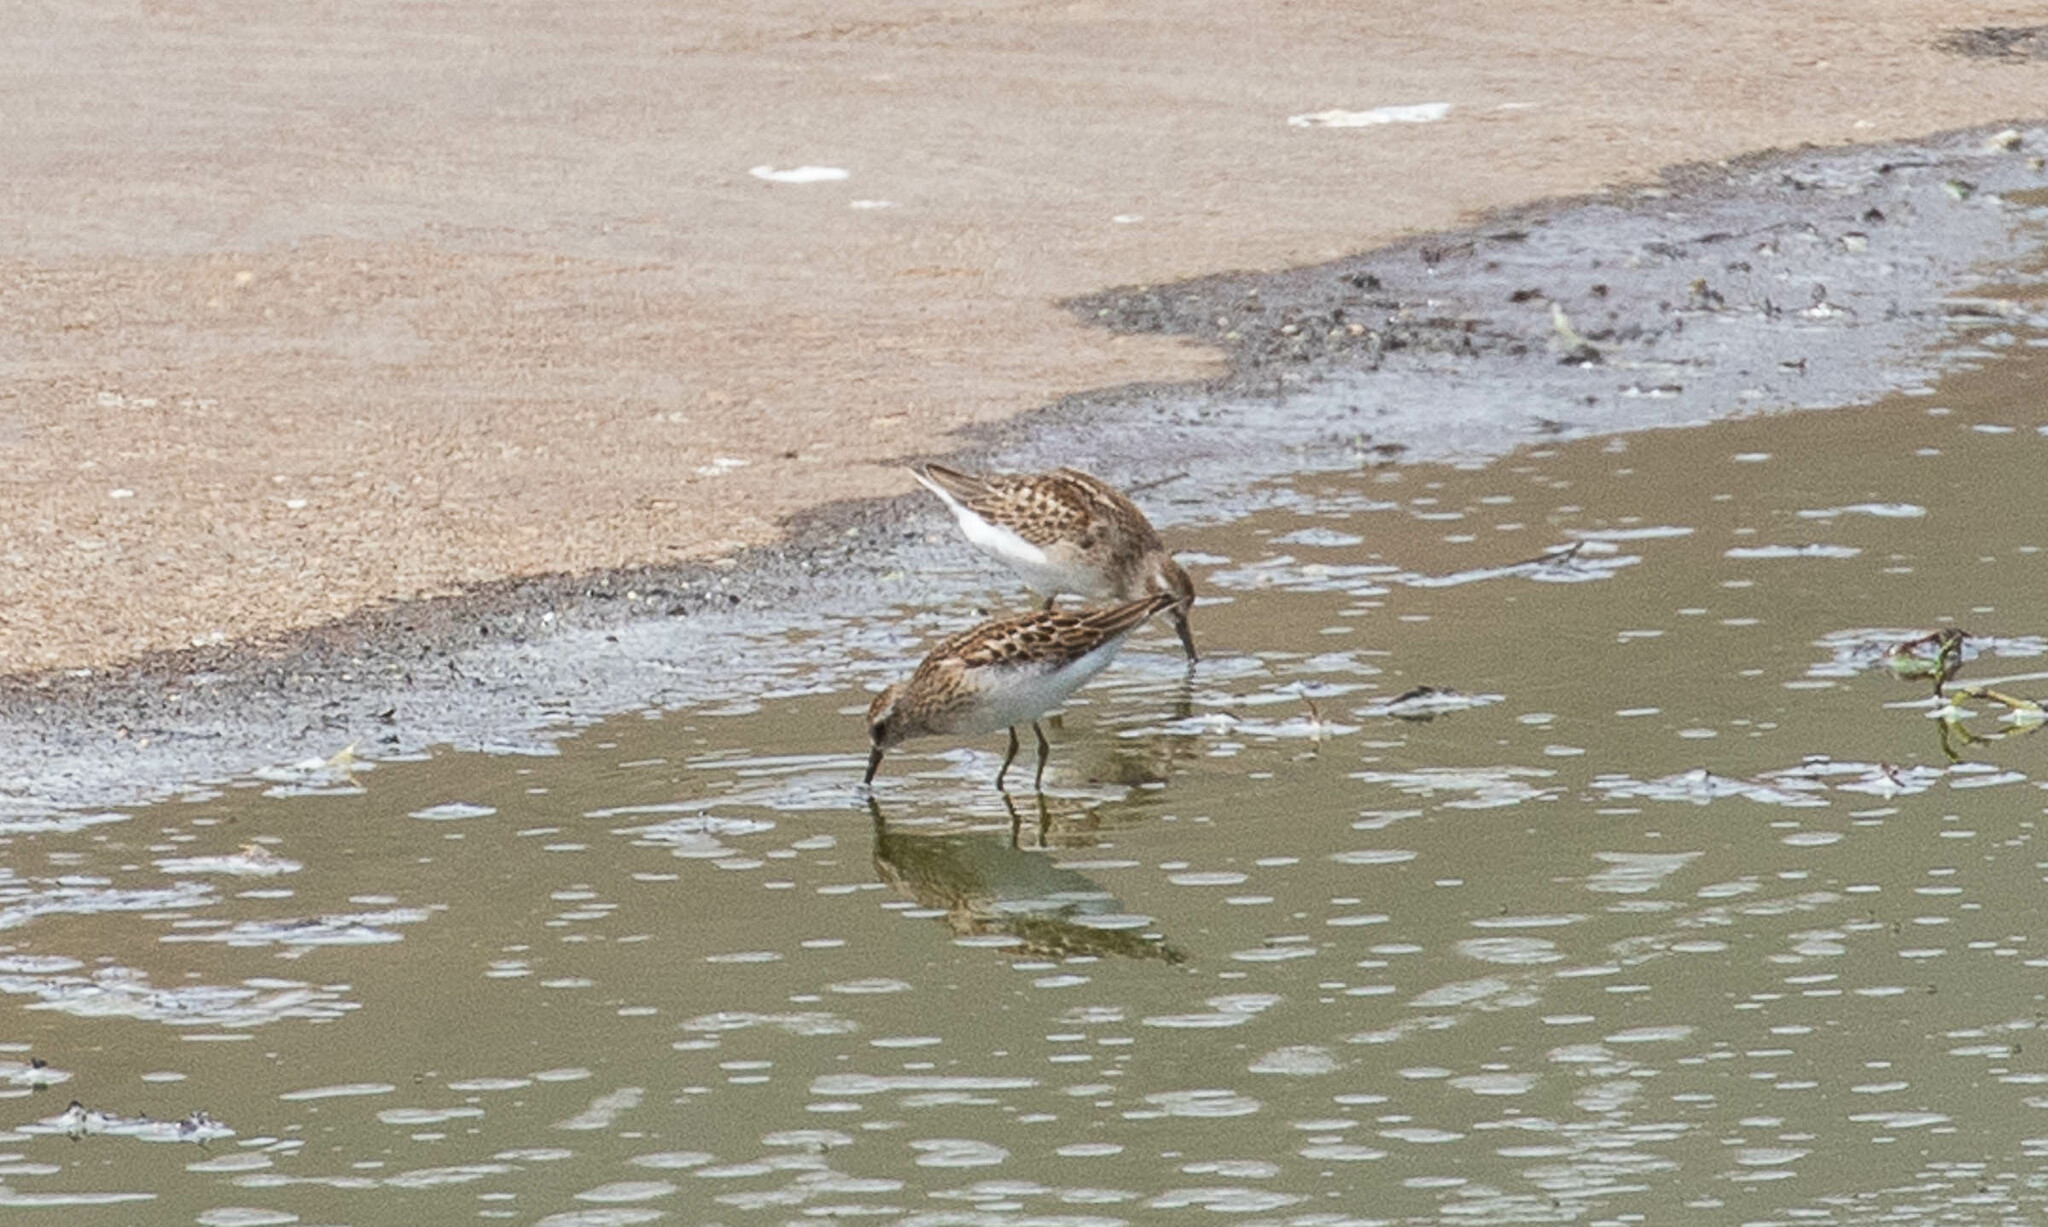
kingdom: Animalia
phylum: Chordata
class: Aves
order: Charadriiformes
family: Scolopacidae
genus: Calidris
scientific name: Calidris minutilla
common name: Least sandpiper
